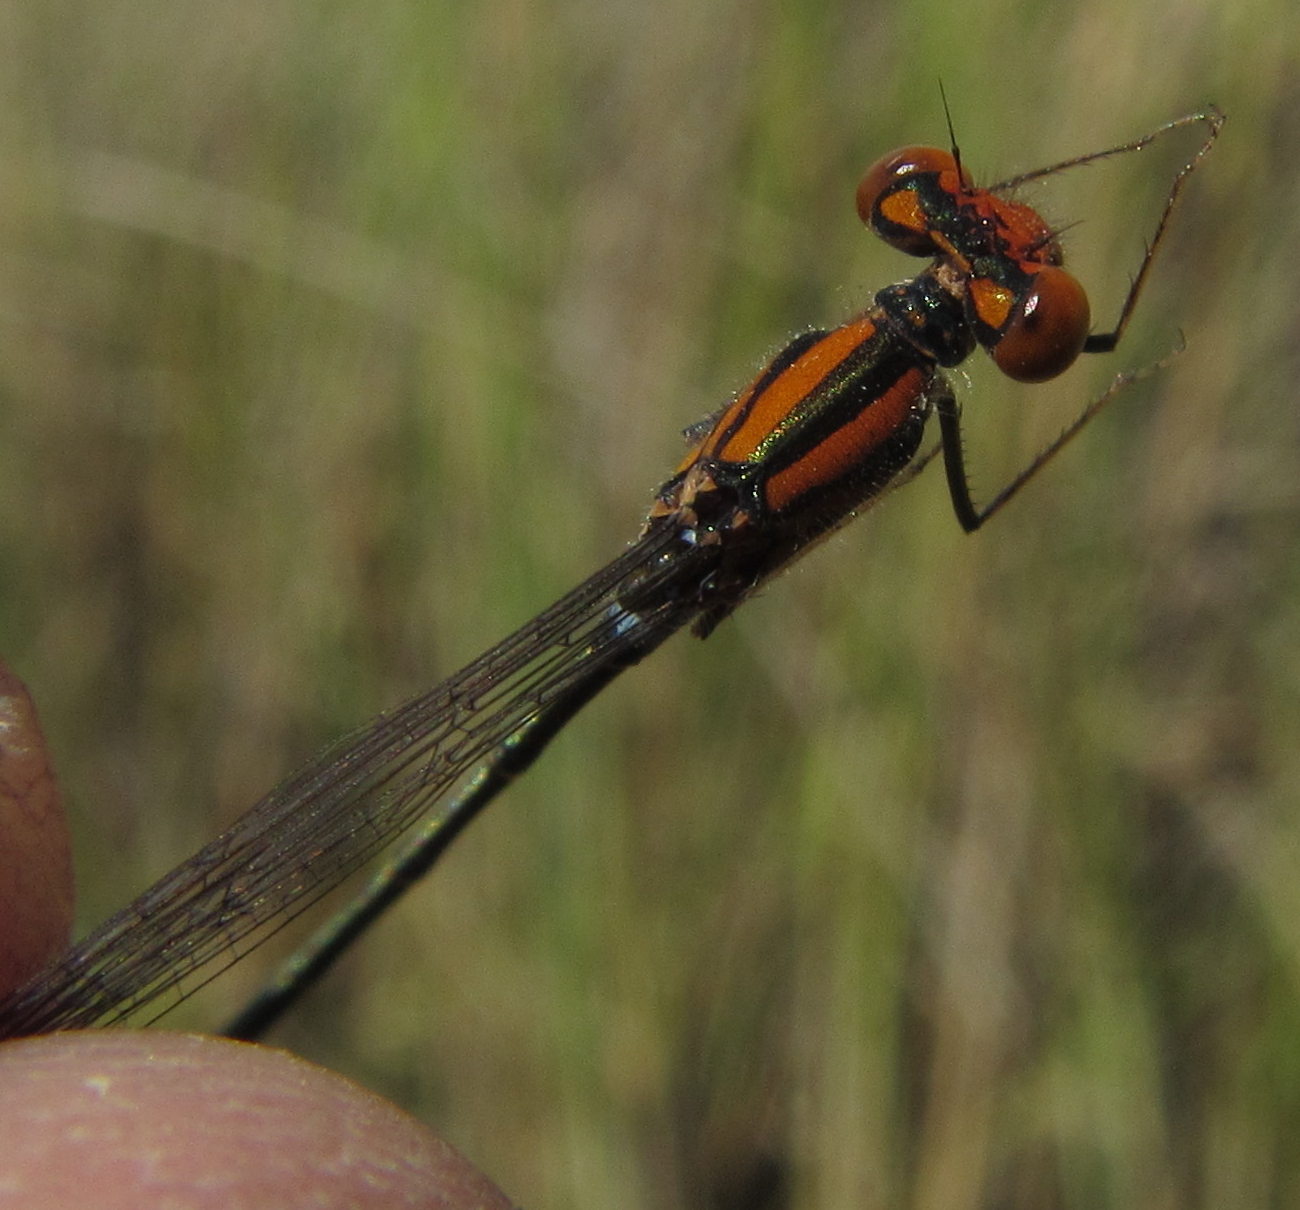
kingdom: Animalia
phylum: Arthropoda
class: Insecta
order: Odonata
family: Coenagrionidae
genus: Pseudagrion
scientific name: Pseudagrion sjoestedti
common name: Variable sprite
